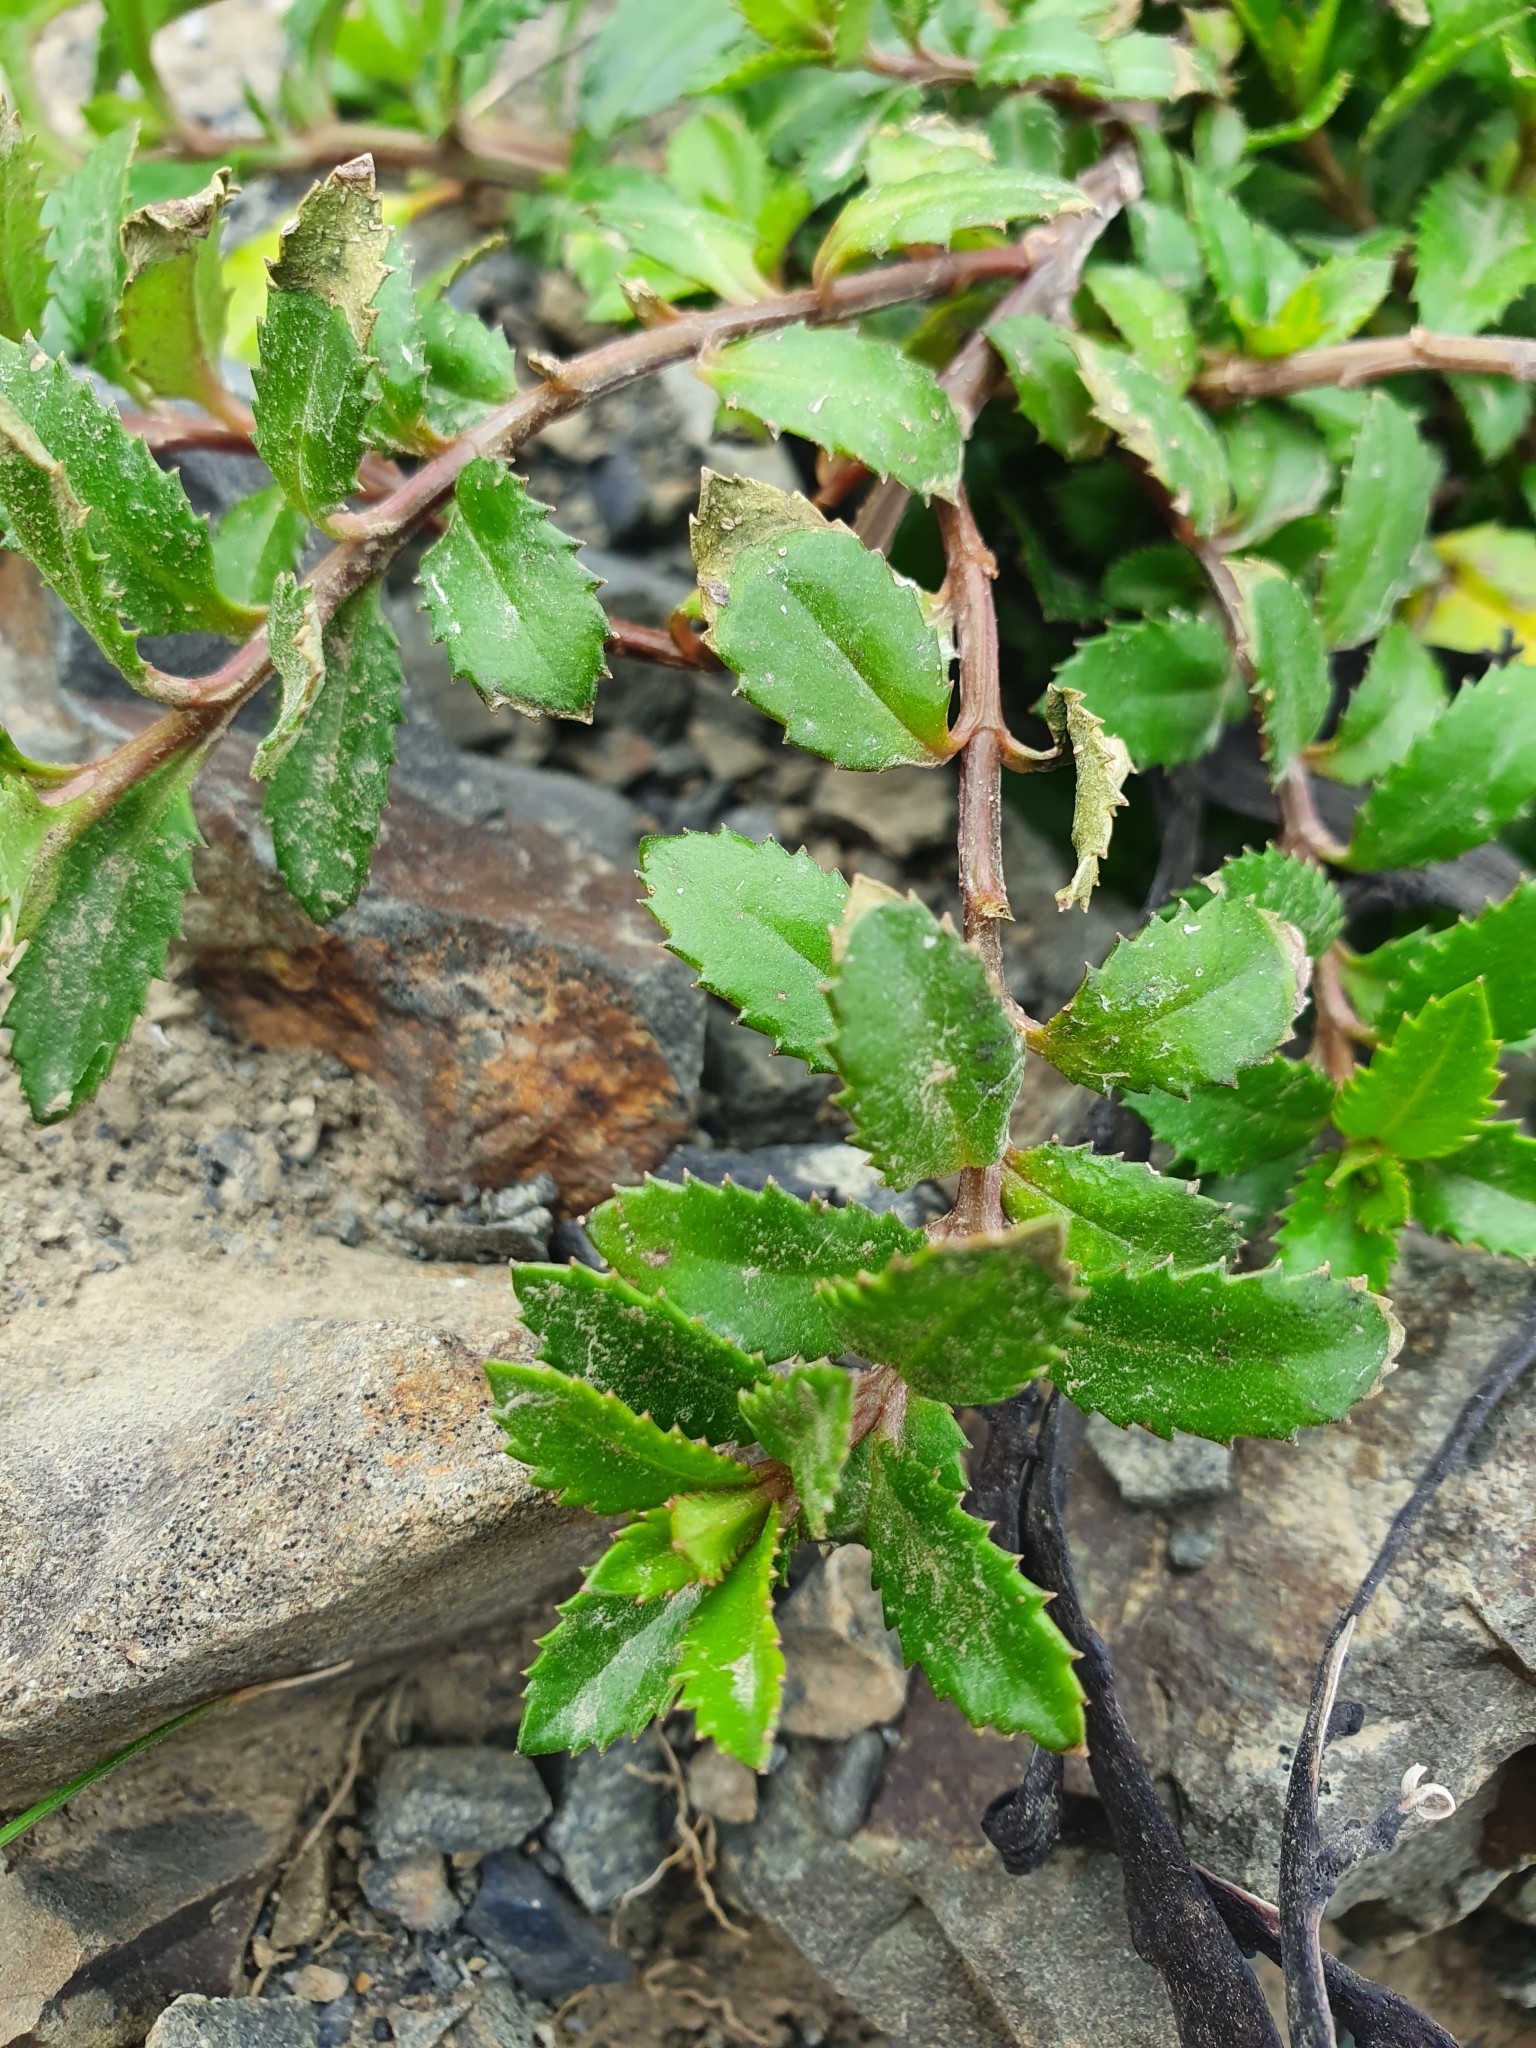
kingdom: Plantae
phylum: Tracheophyta
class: Magnoliopsida
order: Saxifragales
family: Haloragaceae
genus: Haloragis
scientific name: Haloragis erecta
